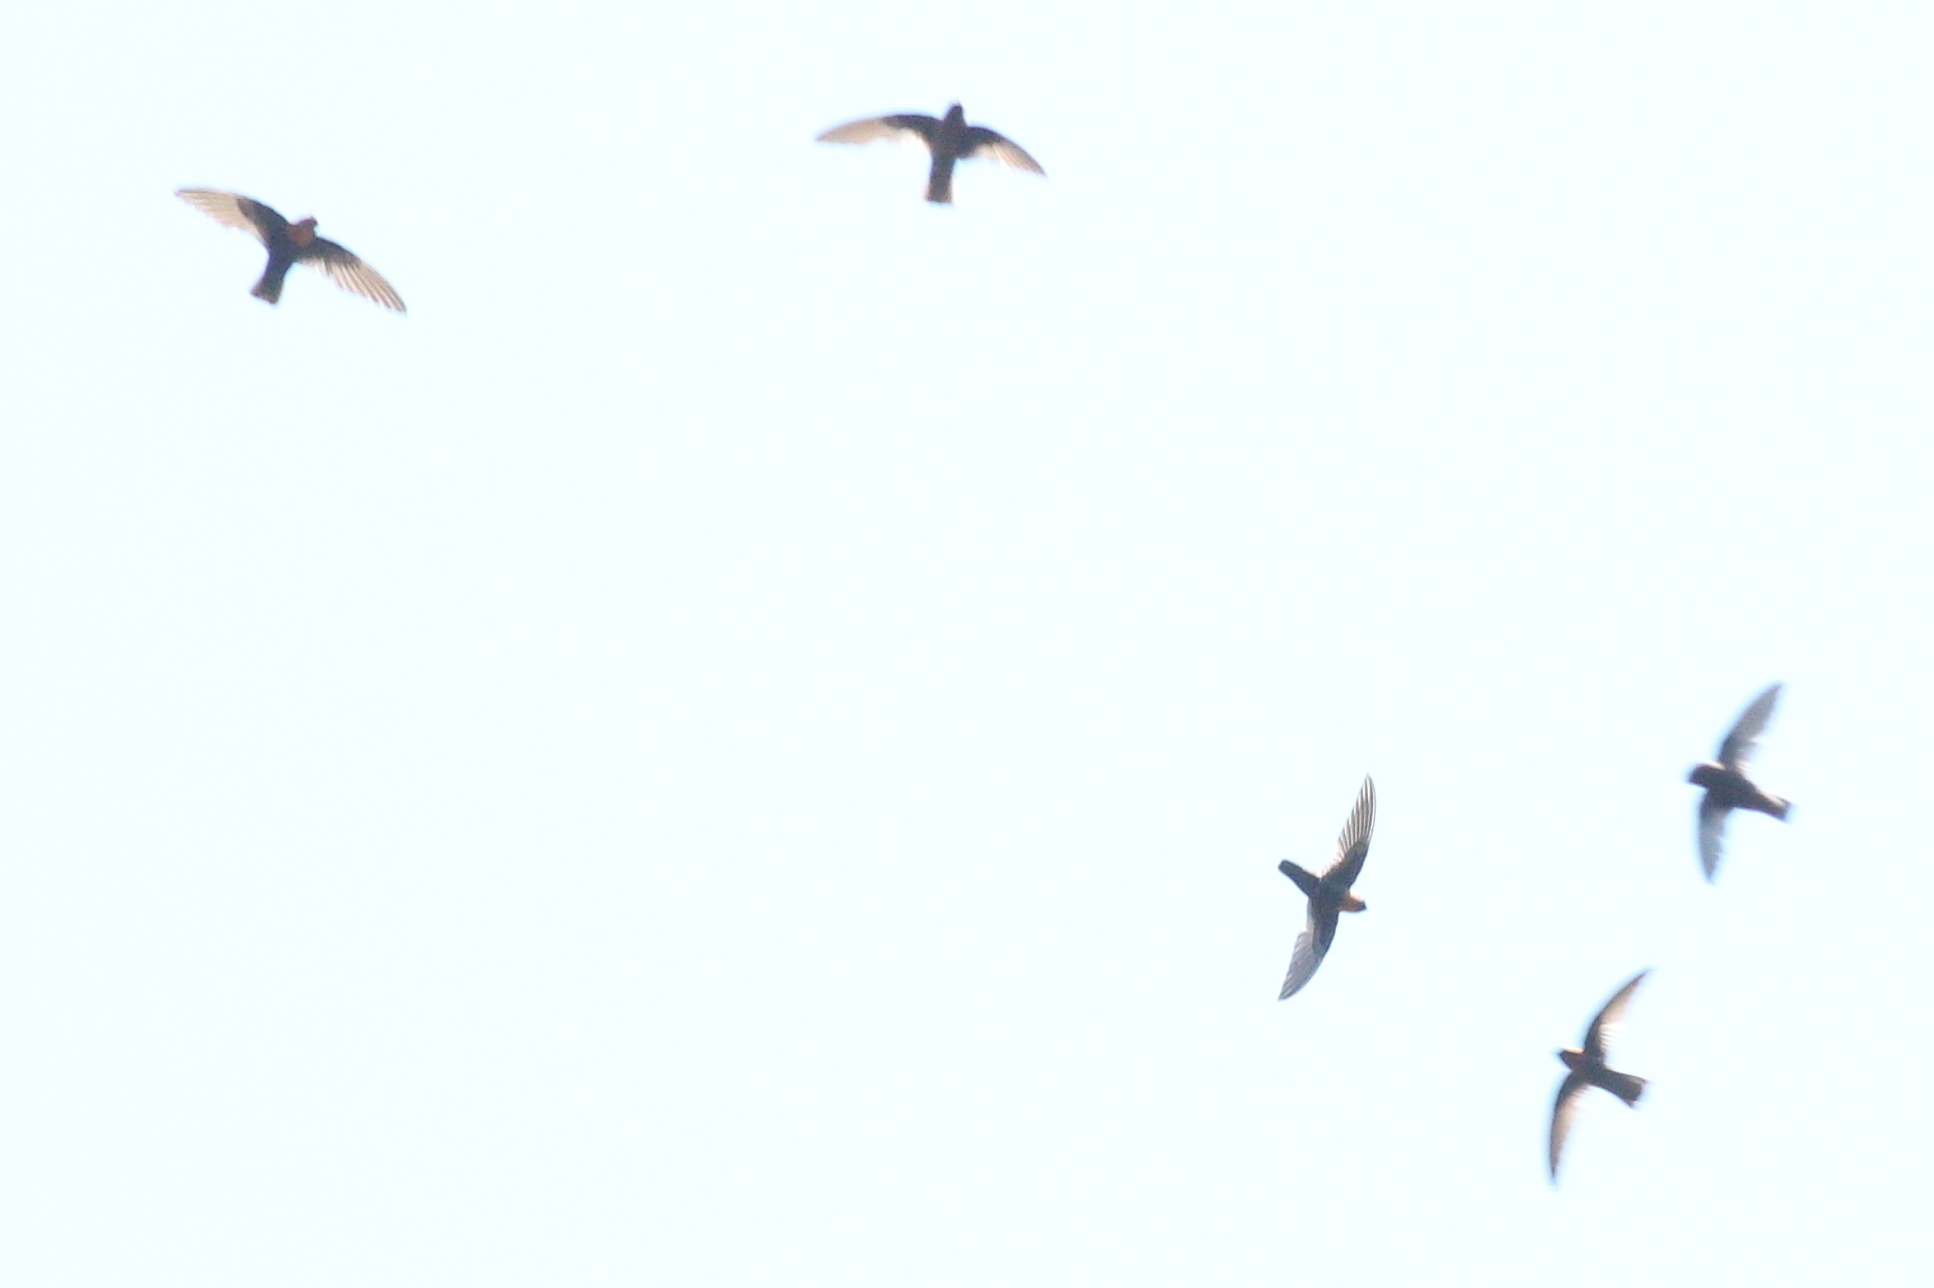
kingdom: Animalia
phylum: Chordata
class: Aves
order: Apodiformes
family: Apodidae
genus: Streptoprocne
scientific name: Streptoprocne rutila
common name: Chestnut-collared swift
